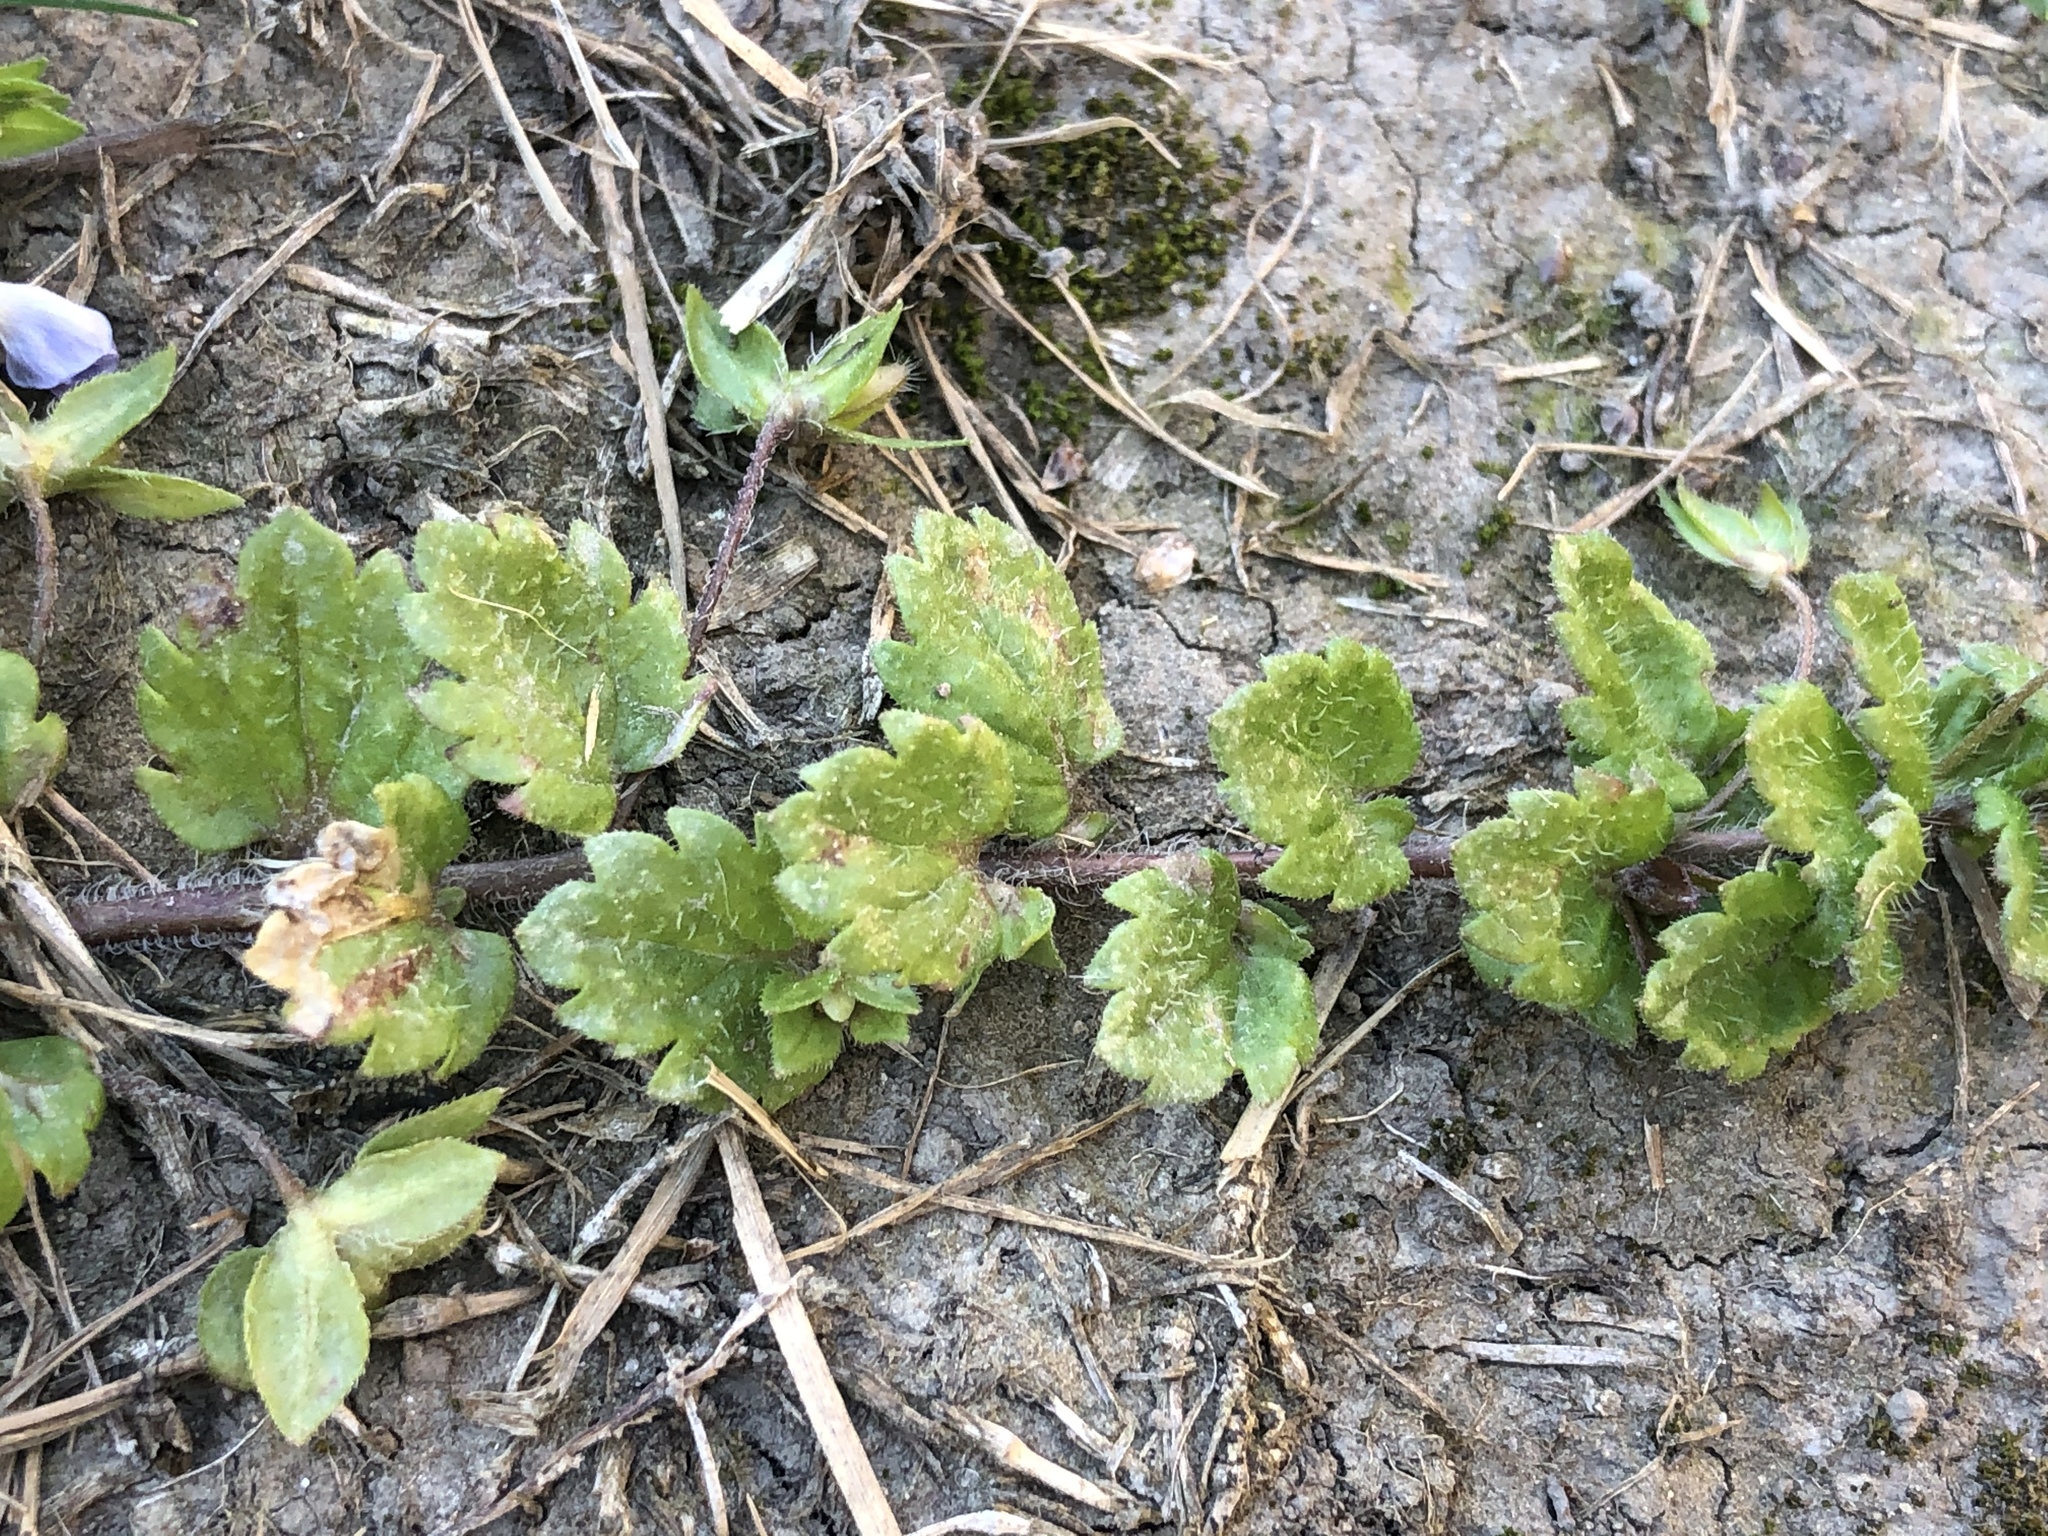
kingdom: Plantae
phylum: Tracheophyta
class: Magnoliopsida
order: Lamiales
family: Plantaginaceae
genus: Veronica
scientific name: Veronica persica
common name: Common field-speedwell
